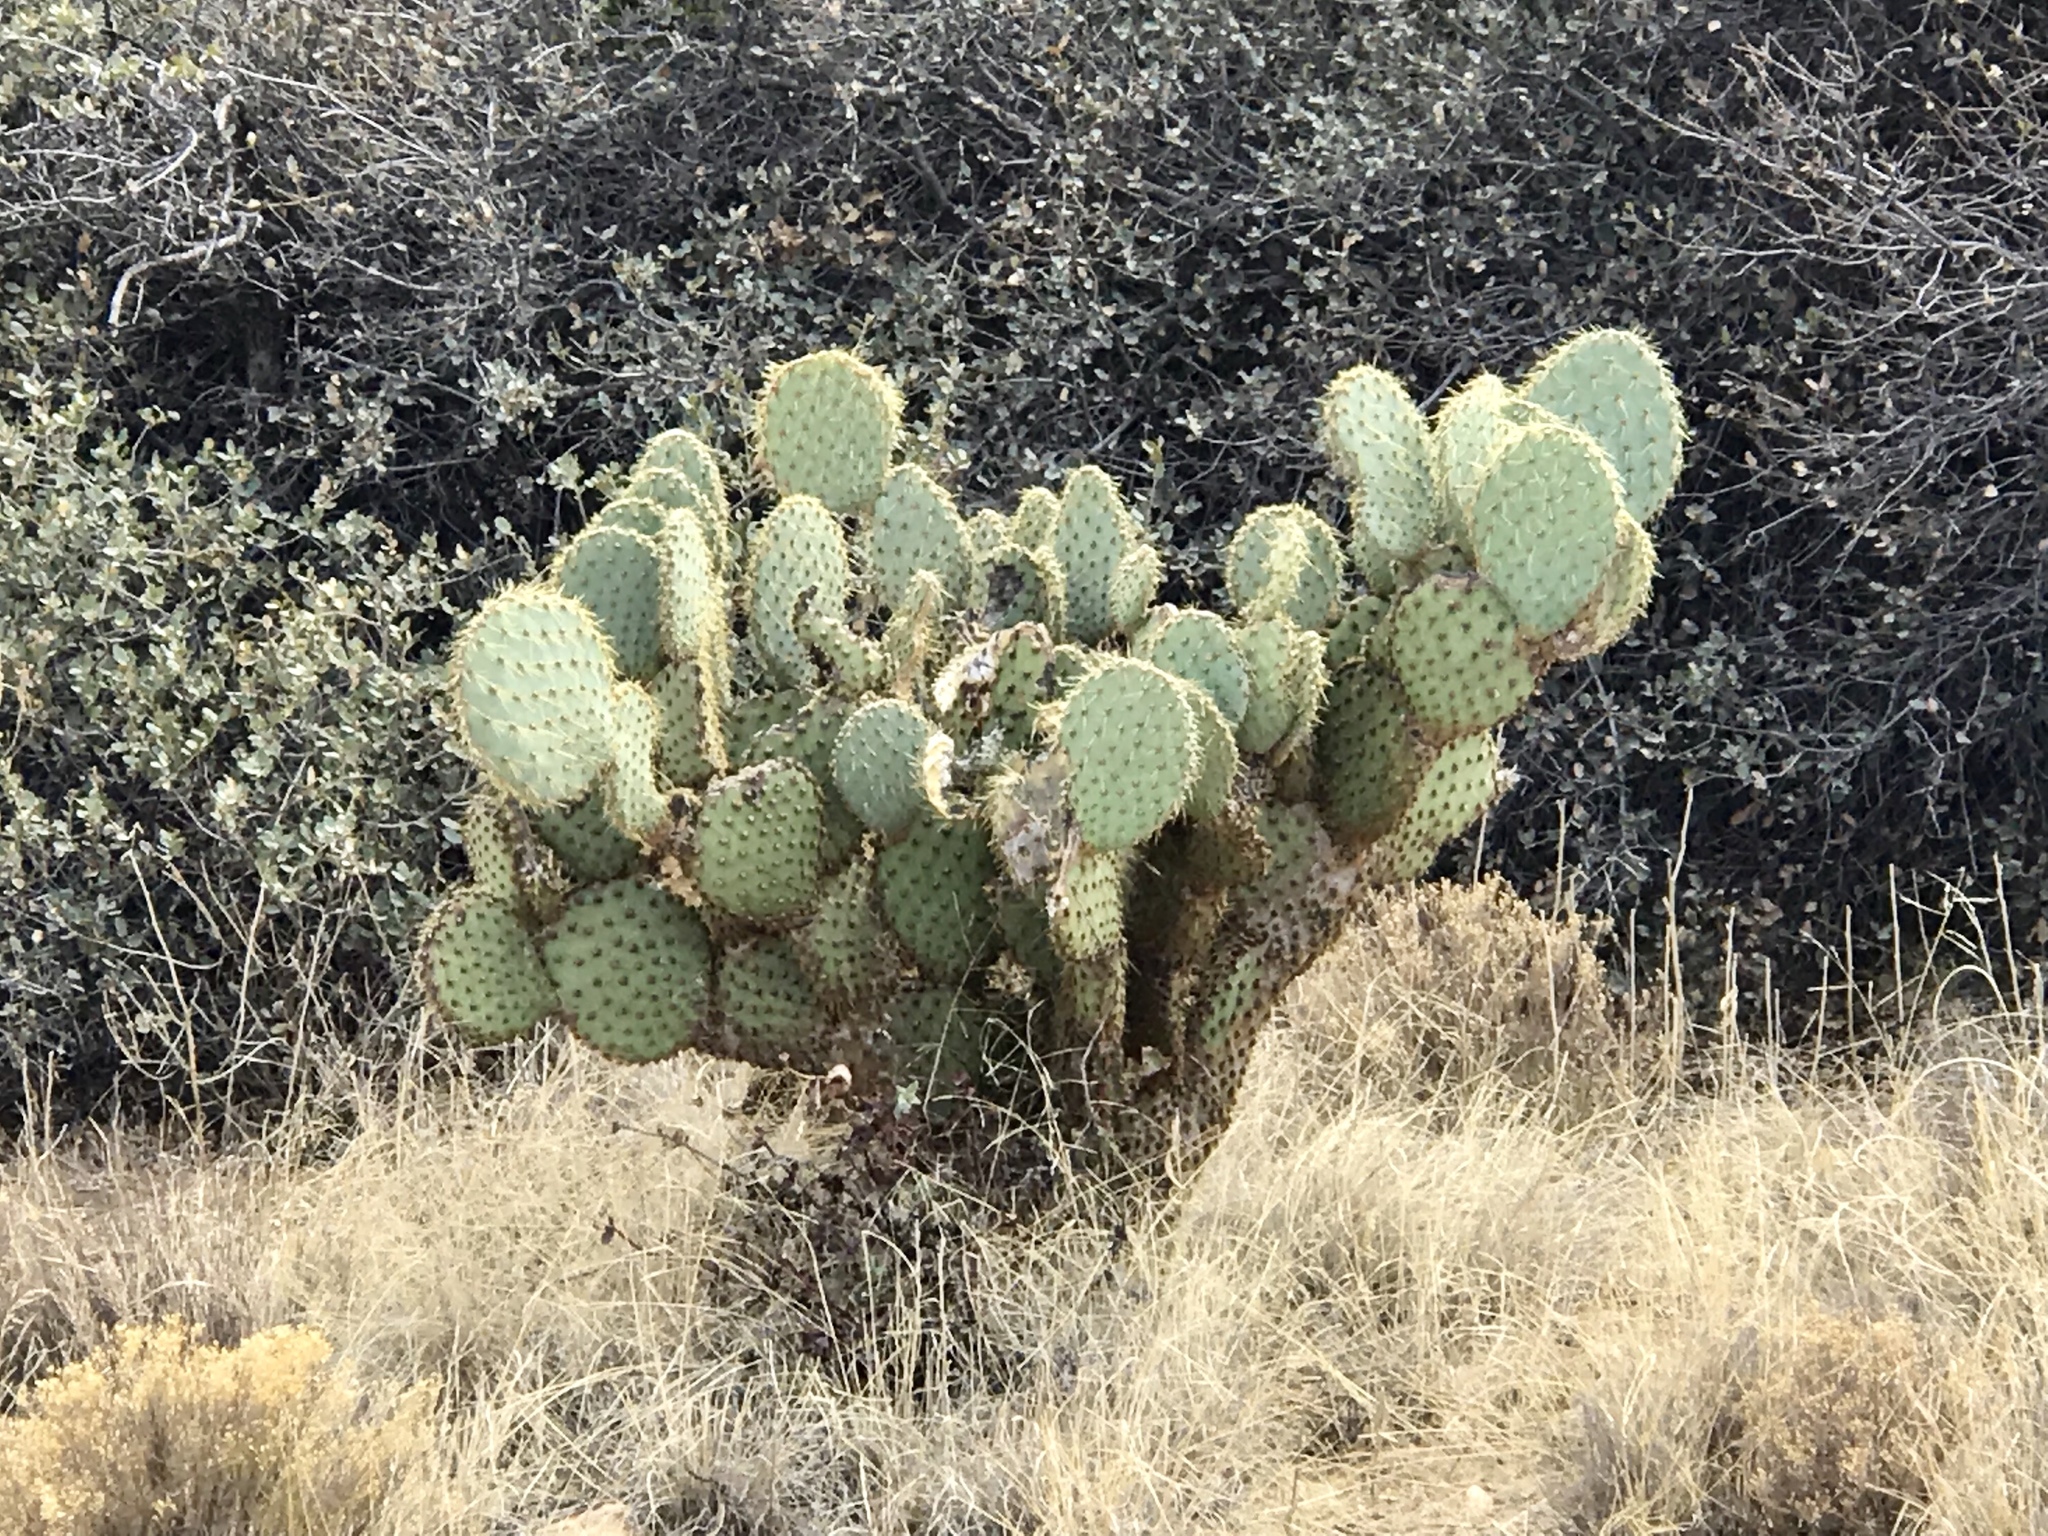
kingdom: Plantae
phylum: Tracheophyta
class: Magnoliopsida
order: Caryophyllales
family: Cactaceae
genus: Opuntia
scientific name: Opuntia chlorotica
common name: Dollar-joint prickly-pear
